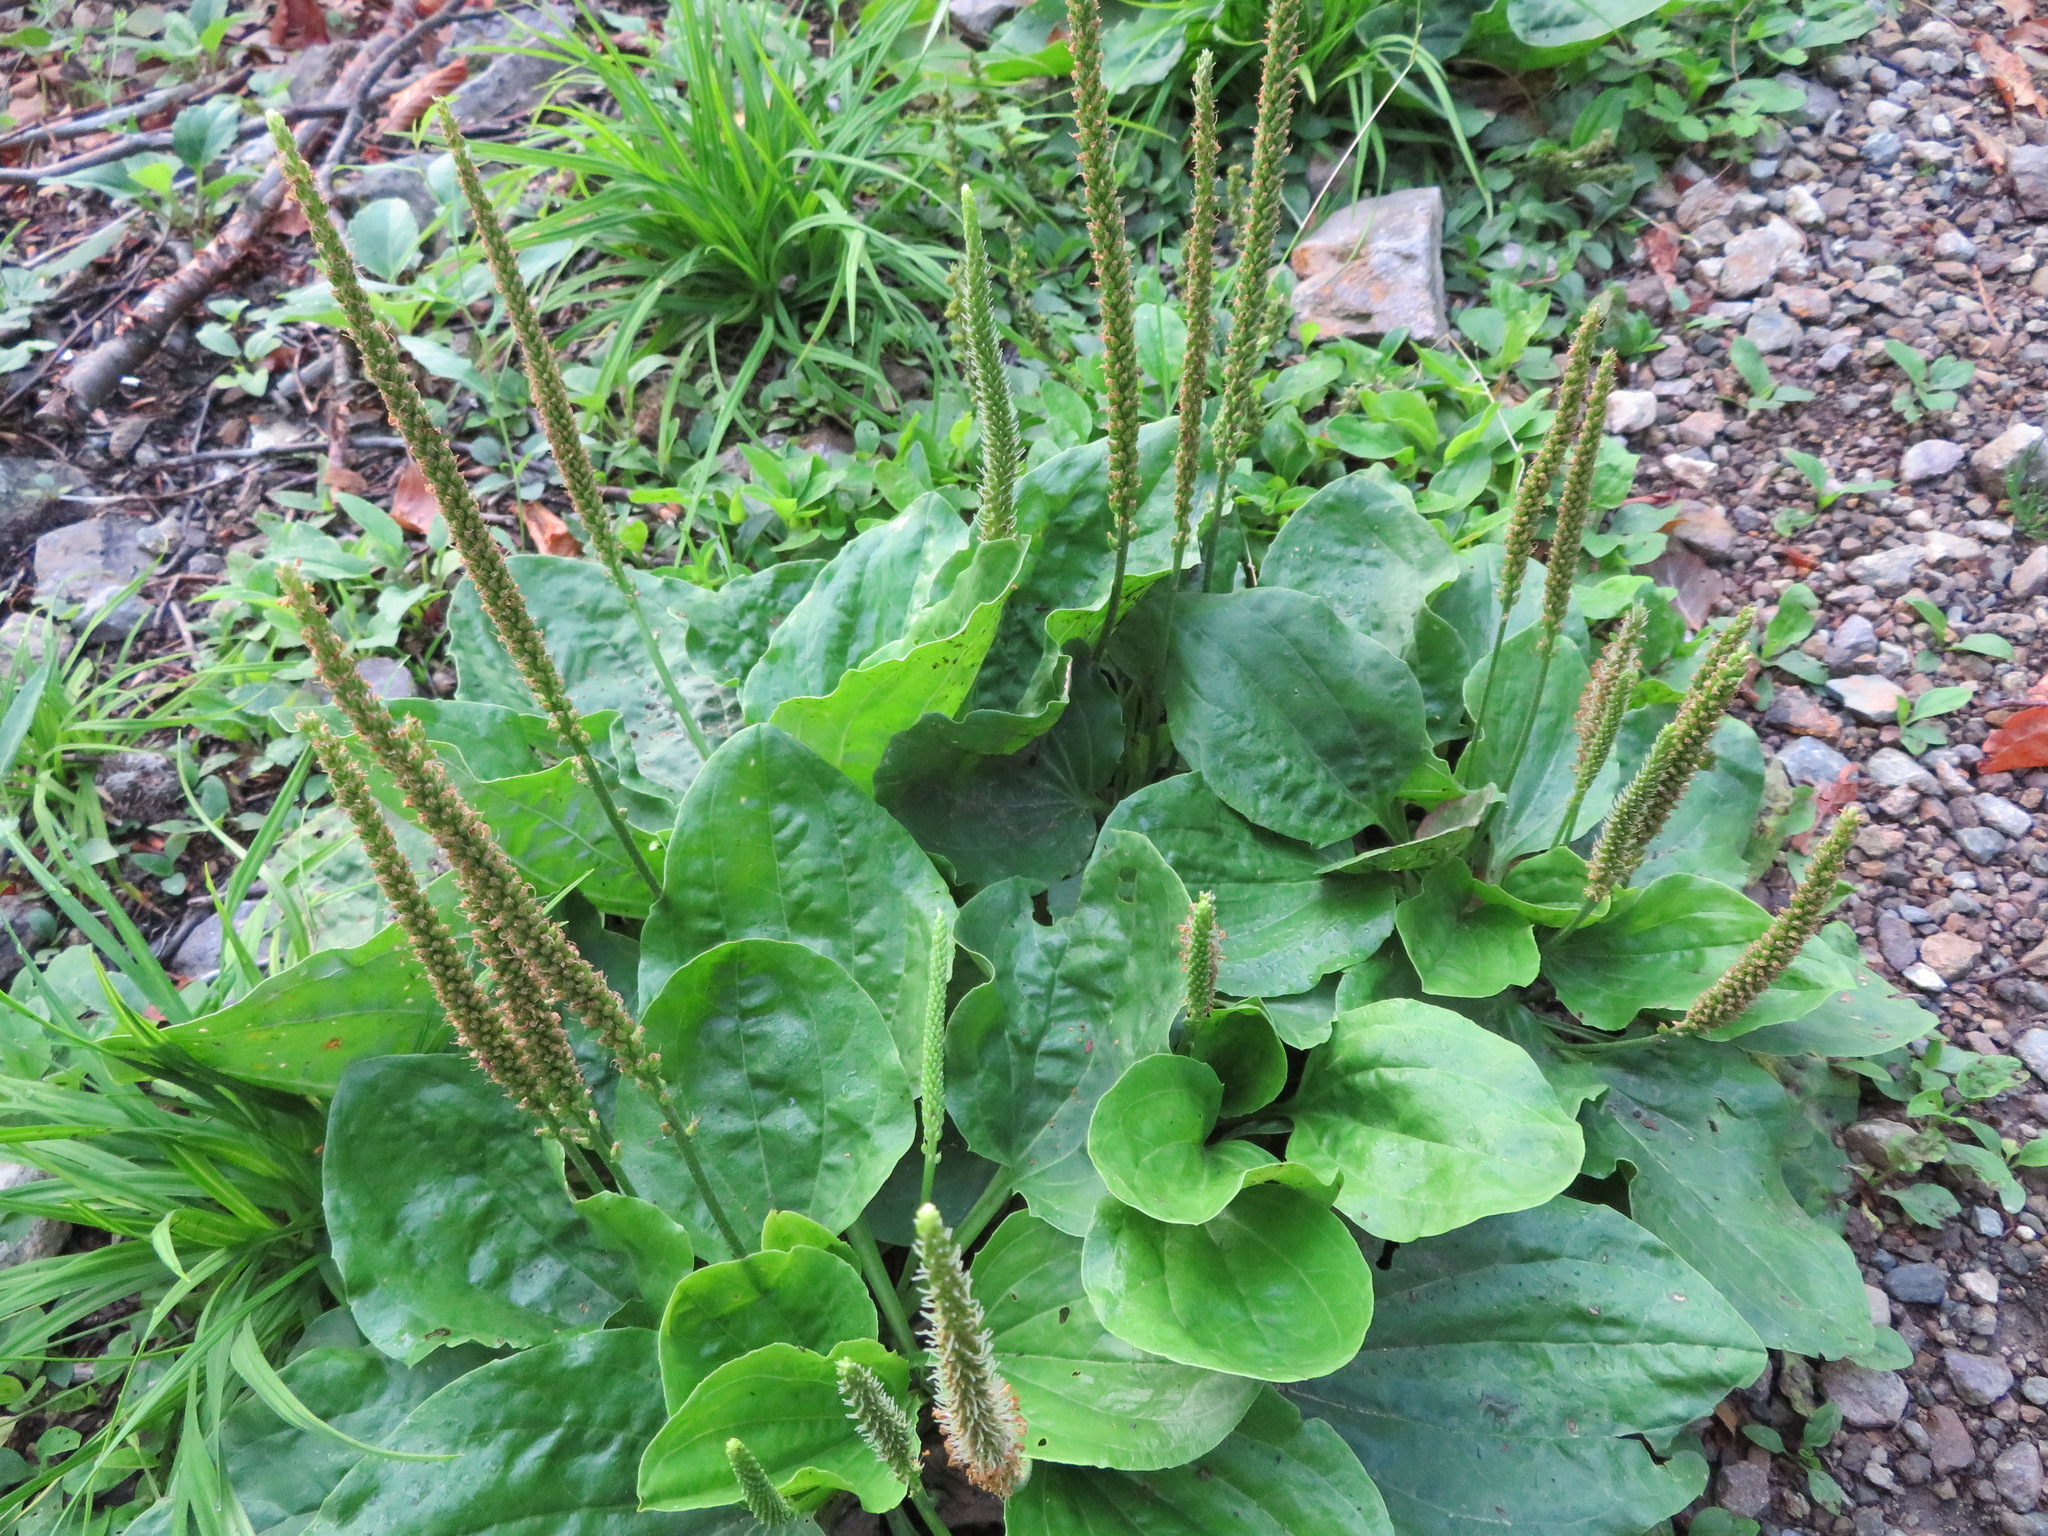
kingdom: Plantae
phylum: Tracheophyta
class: Magnoliopsida
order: Lamiales
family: Plantaginaceae
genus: Plantago
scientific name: Plantago major
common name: Common plantain
